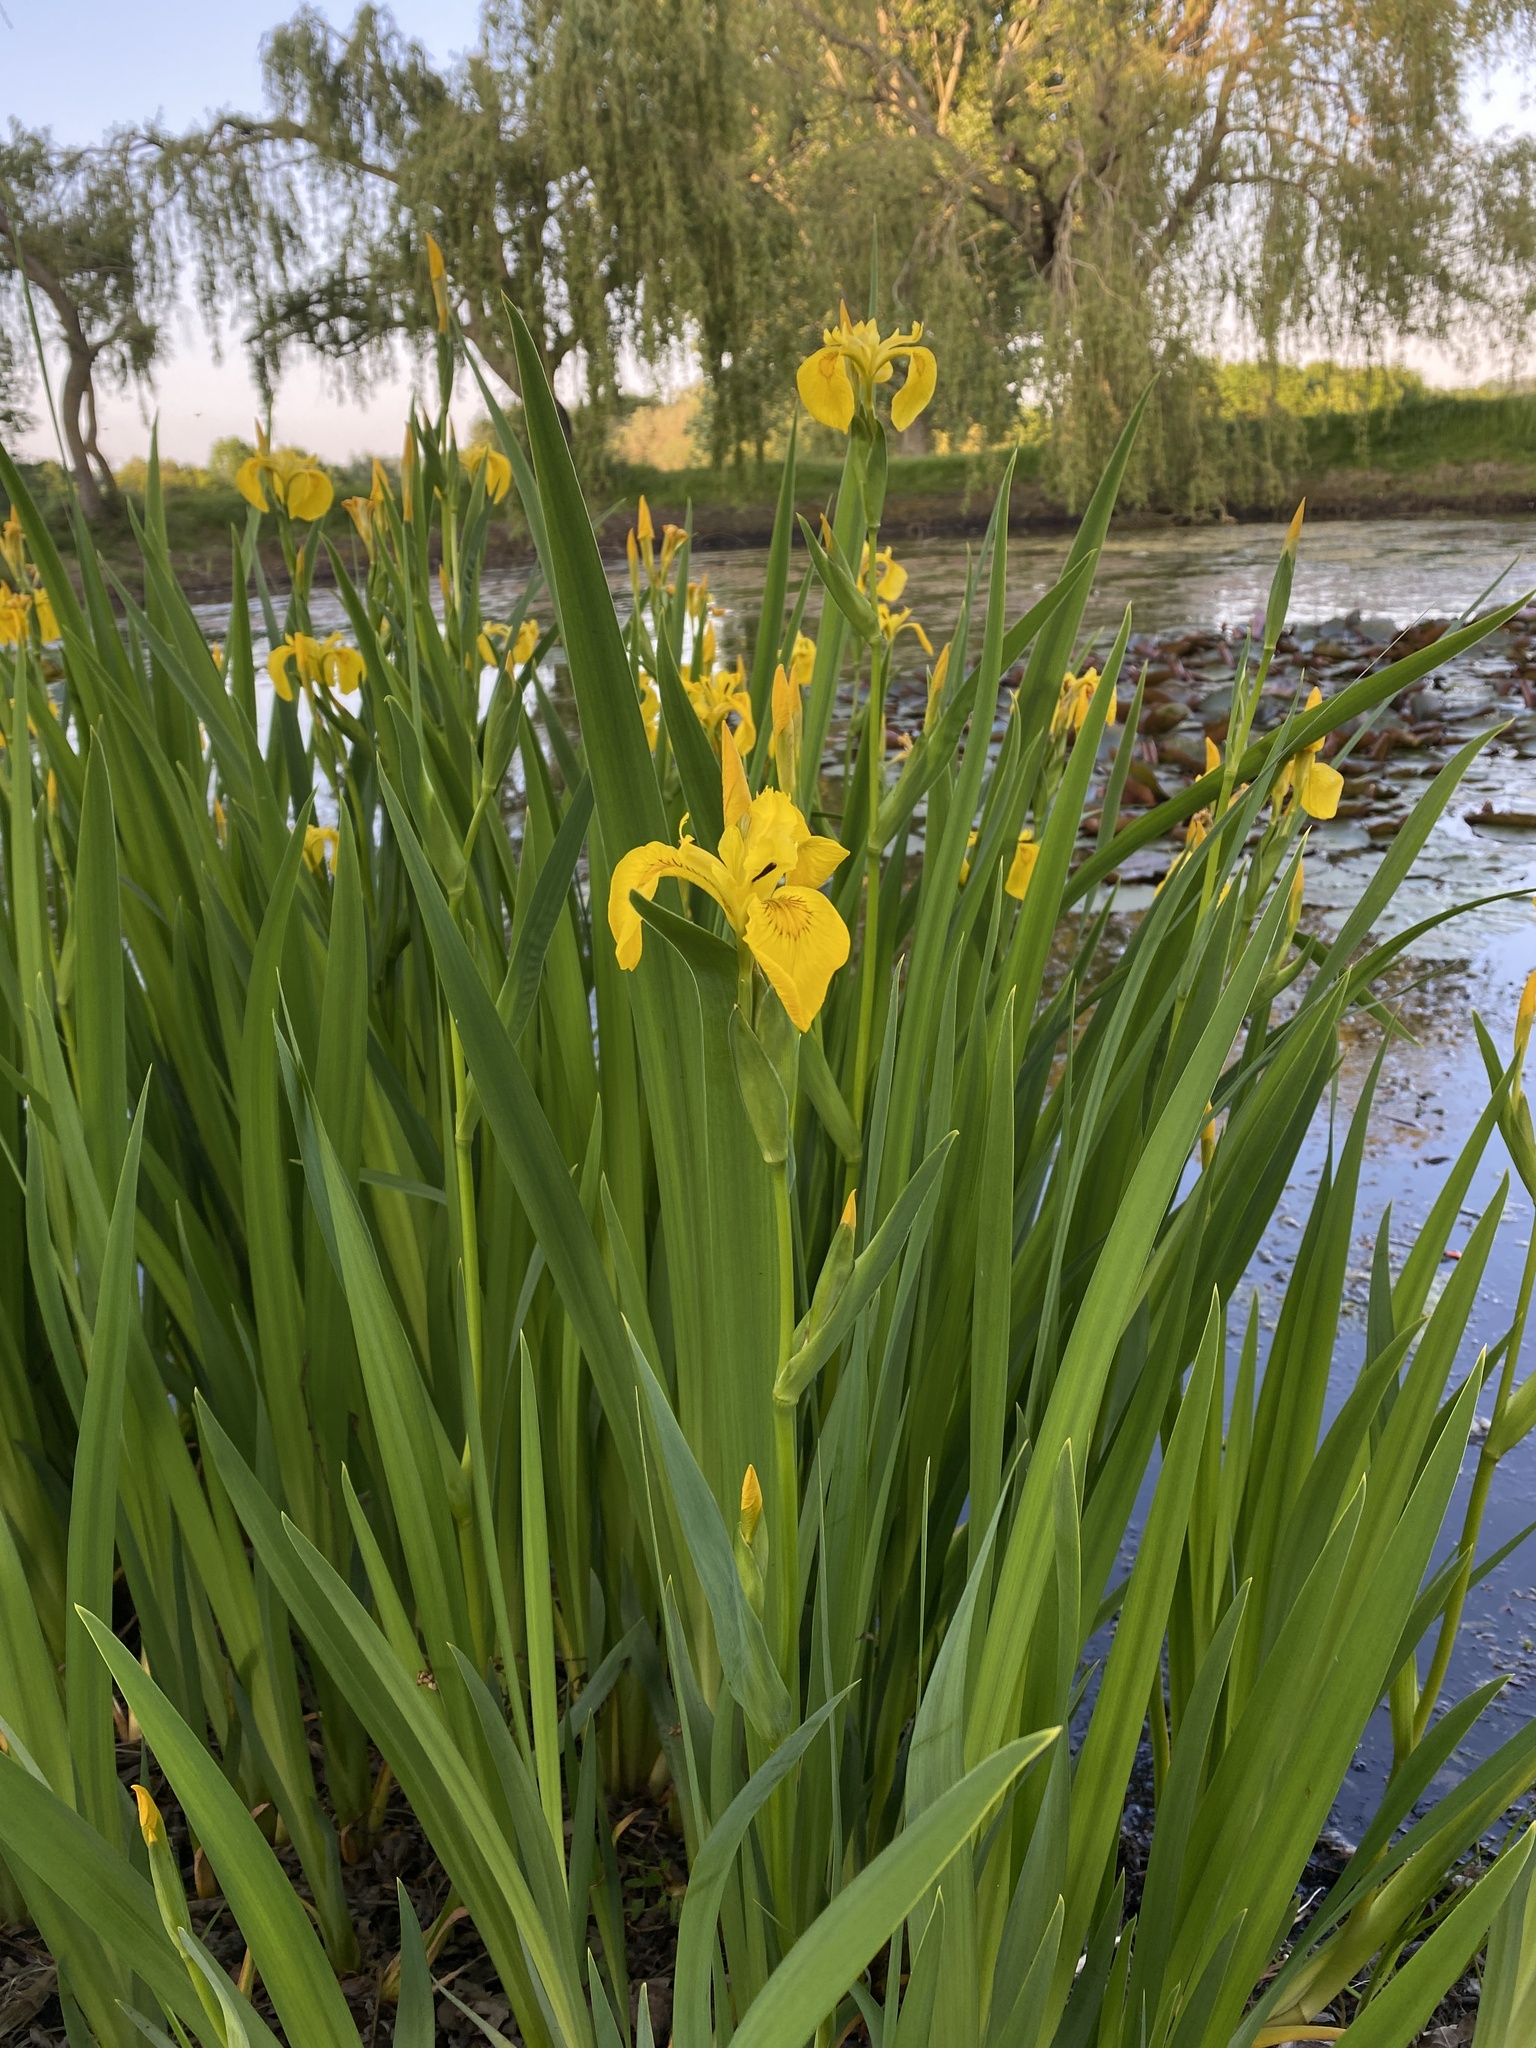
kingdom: Plantae
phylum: Tracheophyta
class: Liliopsida
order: Asparagales
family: Iridaceae
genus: Iris
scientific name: Iris pseudacorus
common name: Yellow flag
